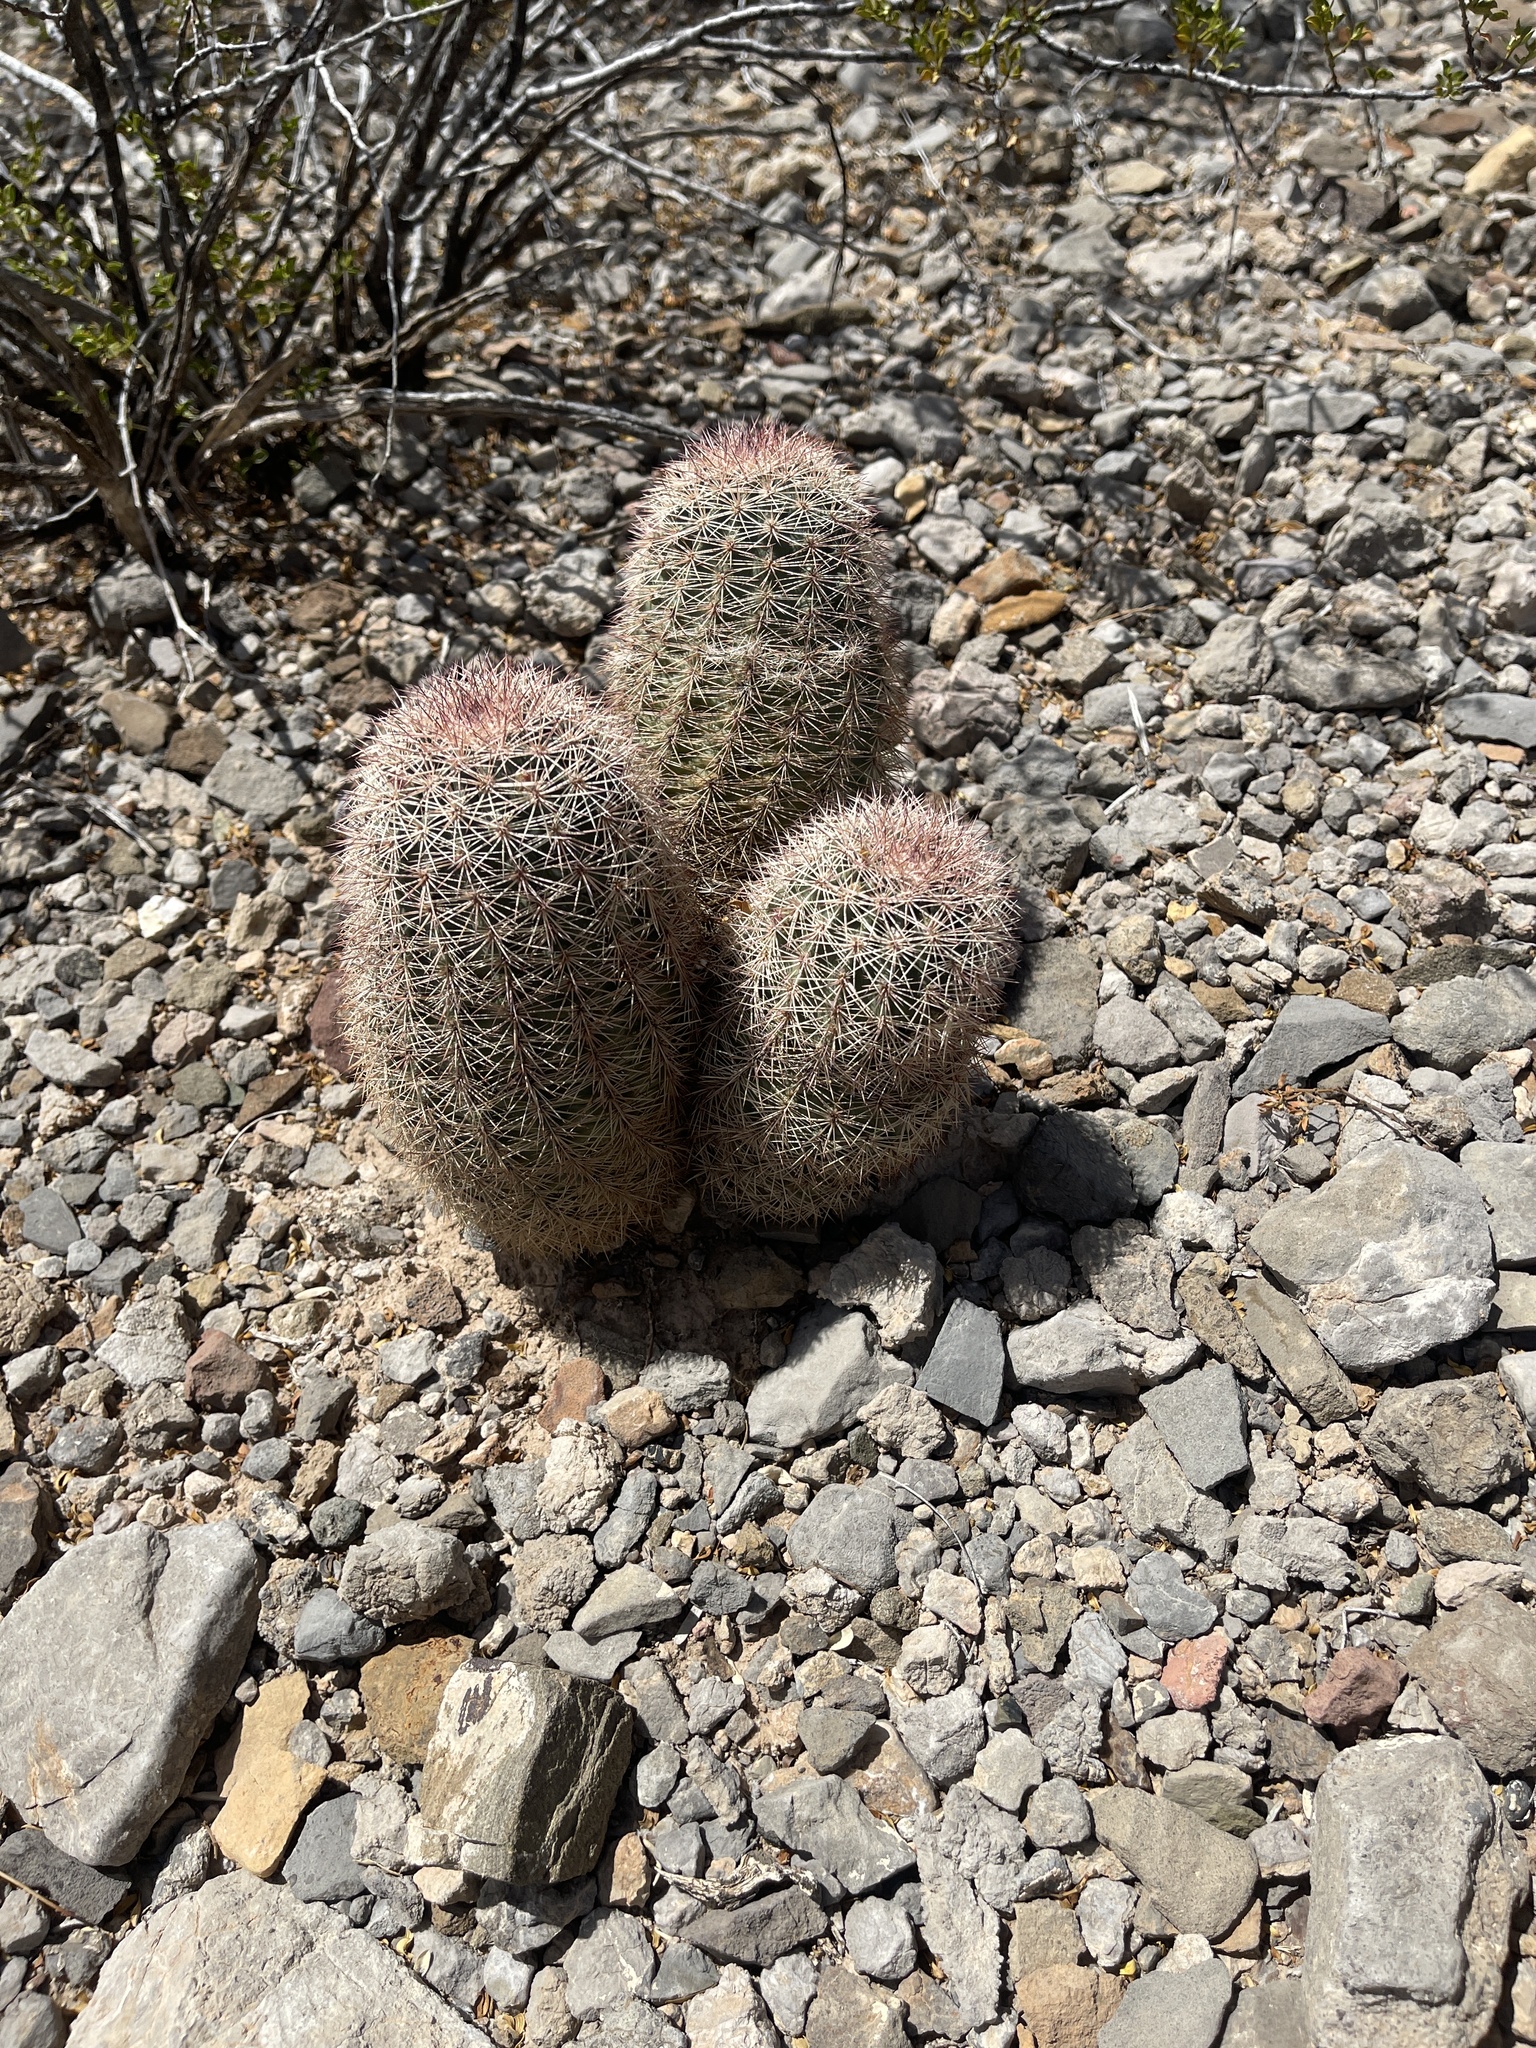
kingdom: Plantae
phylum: Tracheophyta
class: Magnoliopsida
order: Caryophyllales
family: Cactaceae
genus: Echinocereus
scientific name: Echinocereus dasyacanthus
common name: Spiny hedgehog cactus
